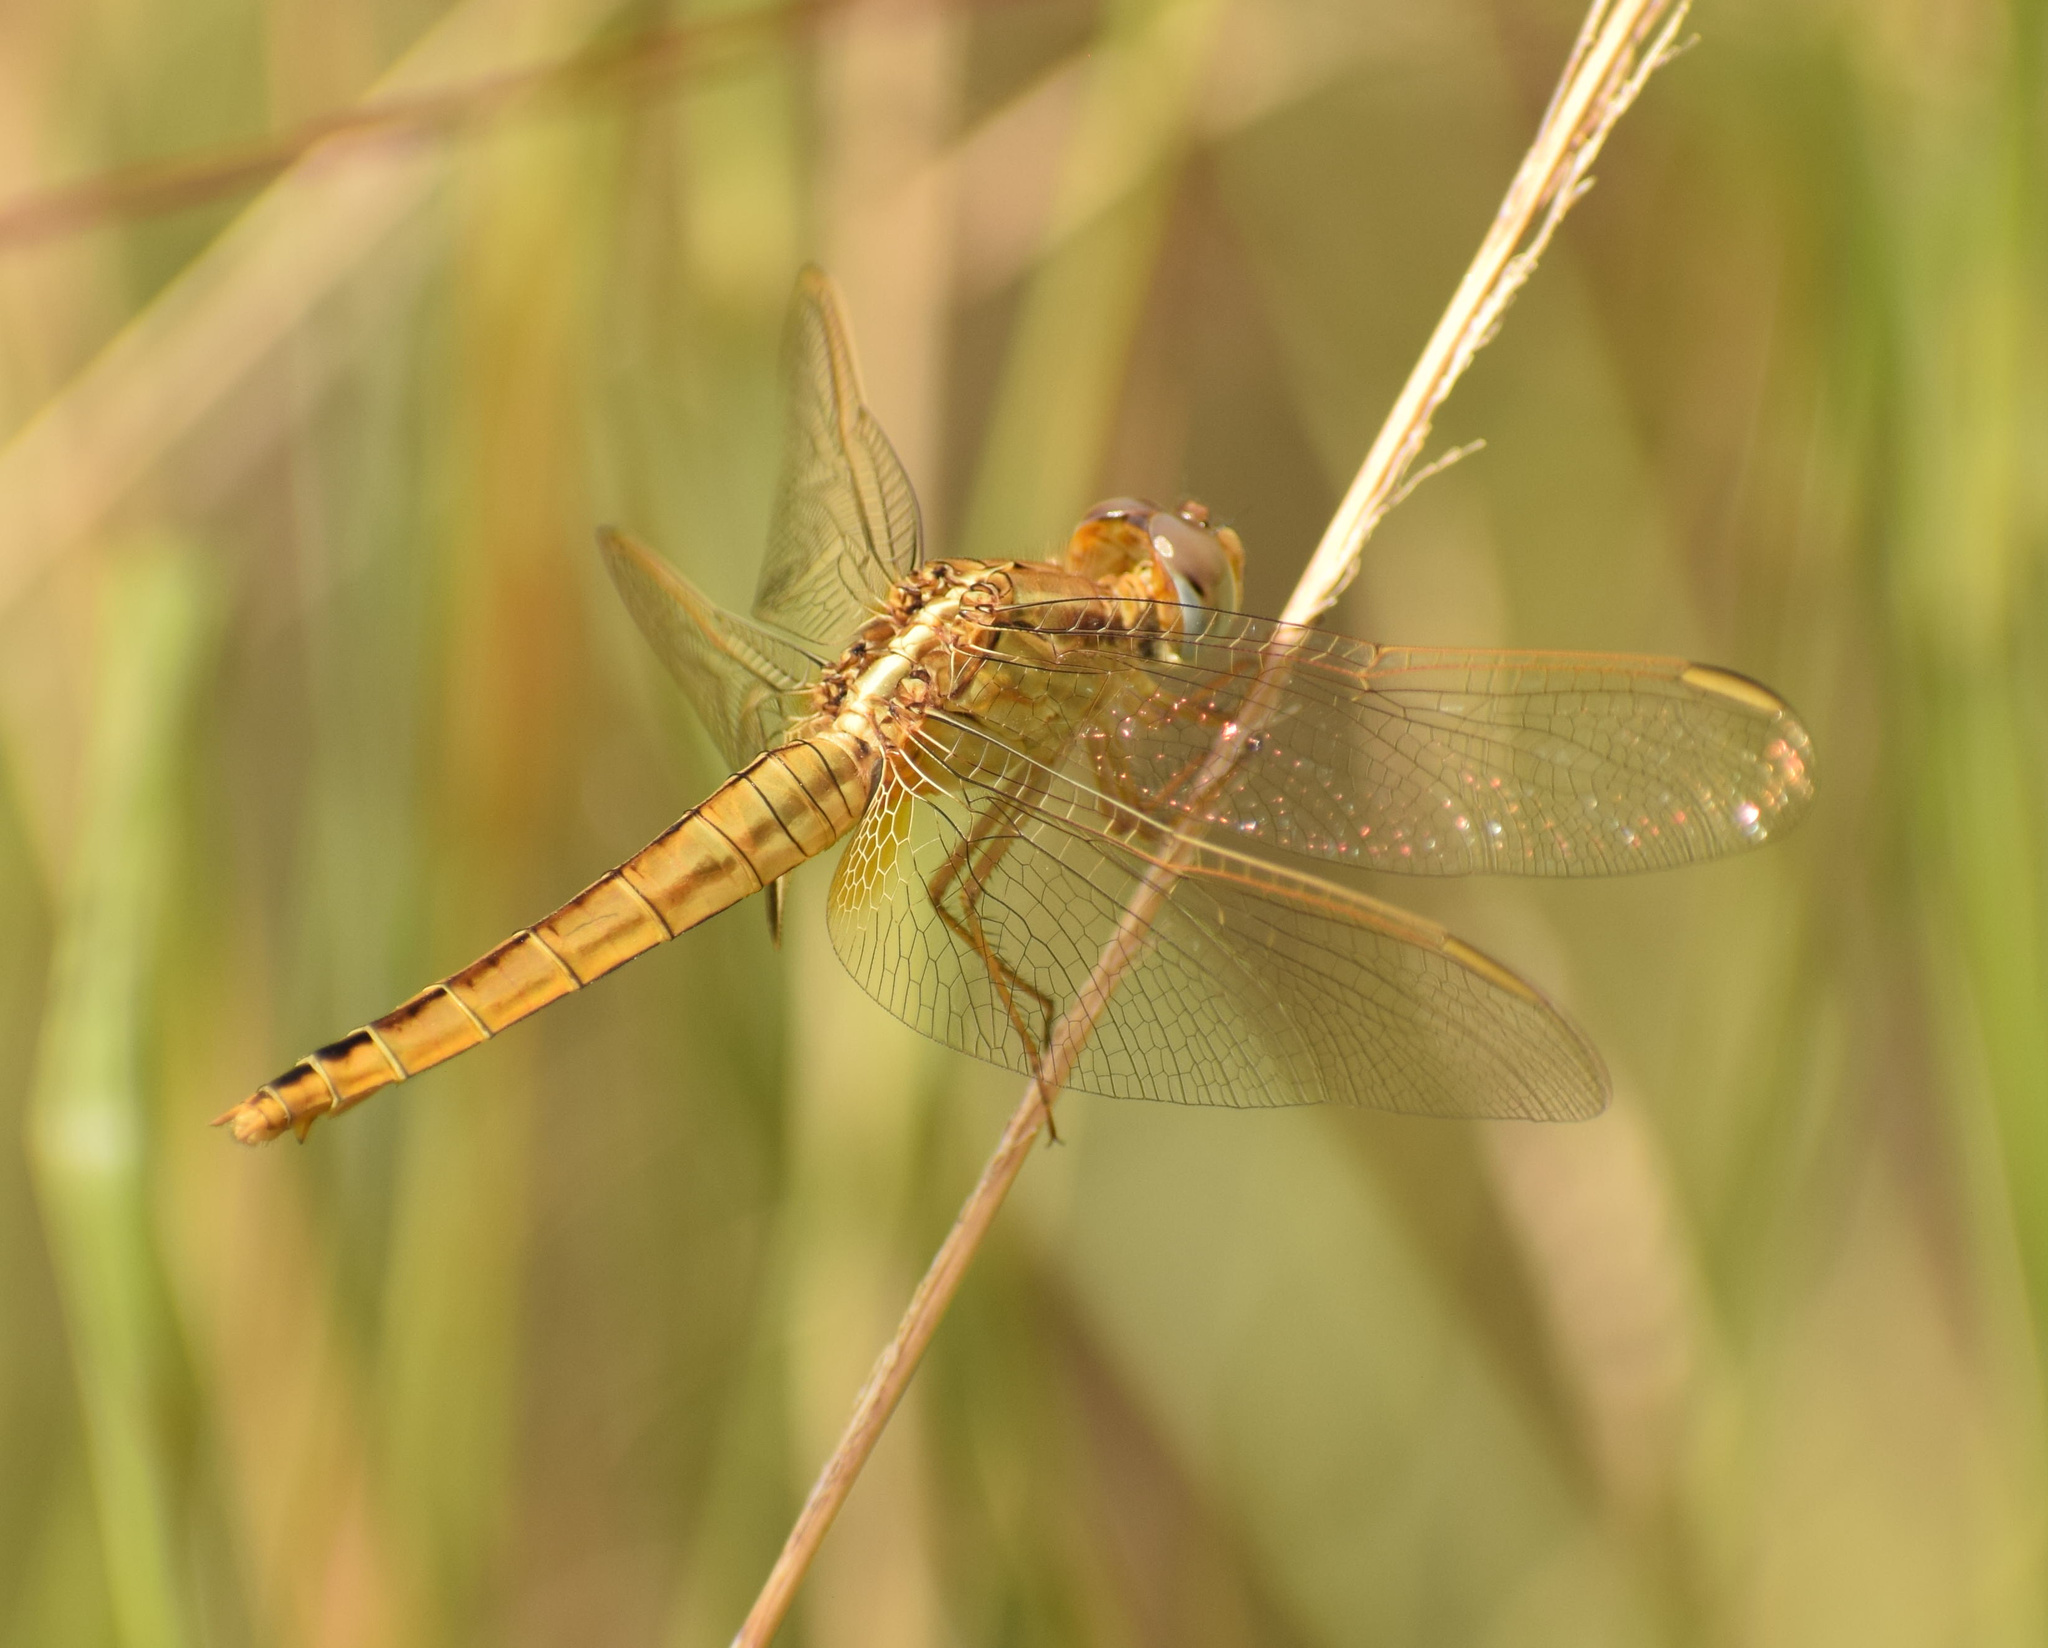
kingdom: Animalia
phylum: Arthropoda
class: Insecta
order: Odonata
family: Libellulidae
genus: Crocothemis
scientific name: Crocothemis erythraea
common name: Scarlet dragonfly
